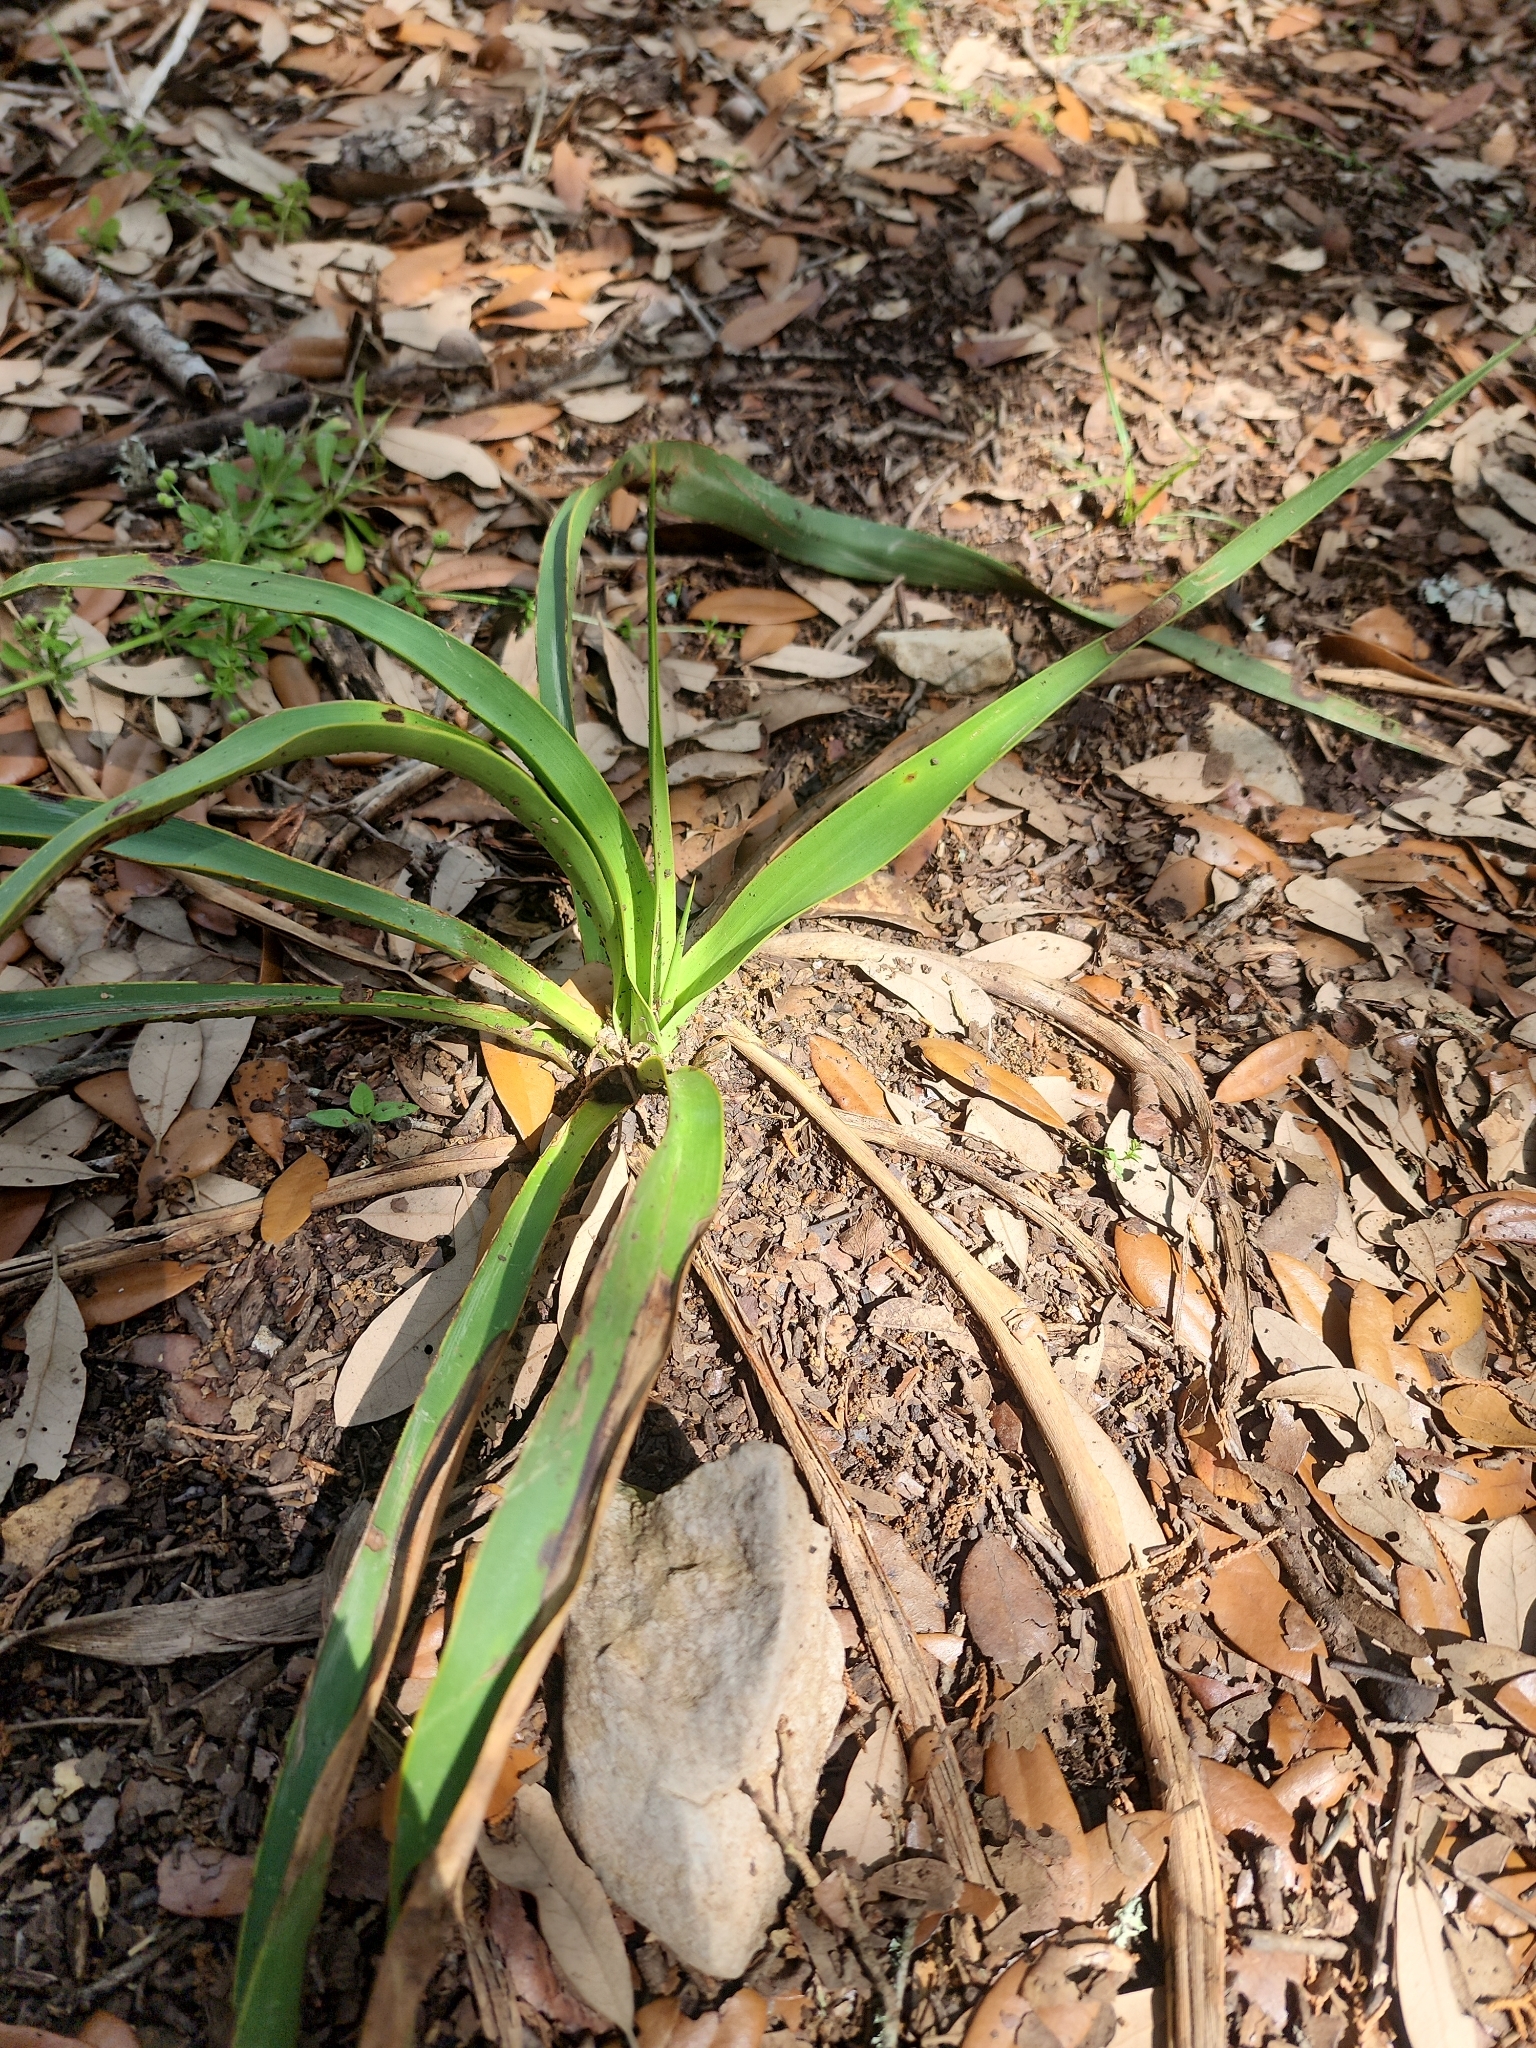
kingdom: Plantae
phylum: Tracheophyta
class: Liliopsida
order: Asparagales
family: Asparagaceae
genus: Yucca
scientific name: Yucca rupicola
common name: Twisted-leaf spanish-dagger
